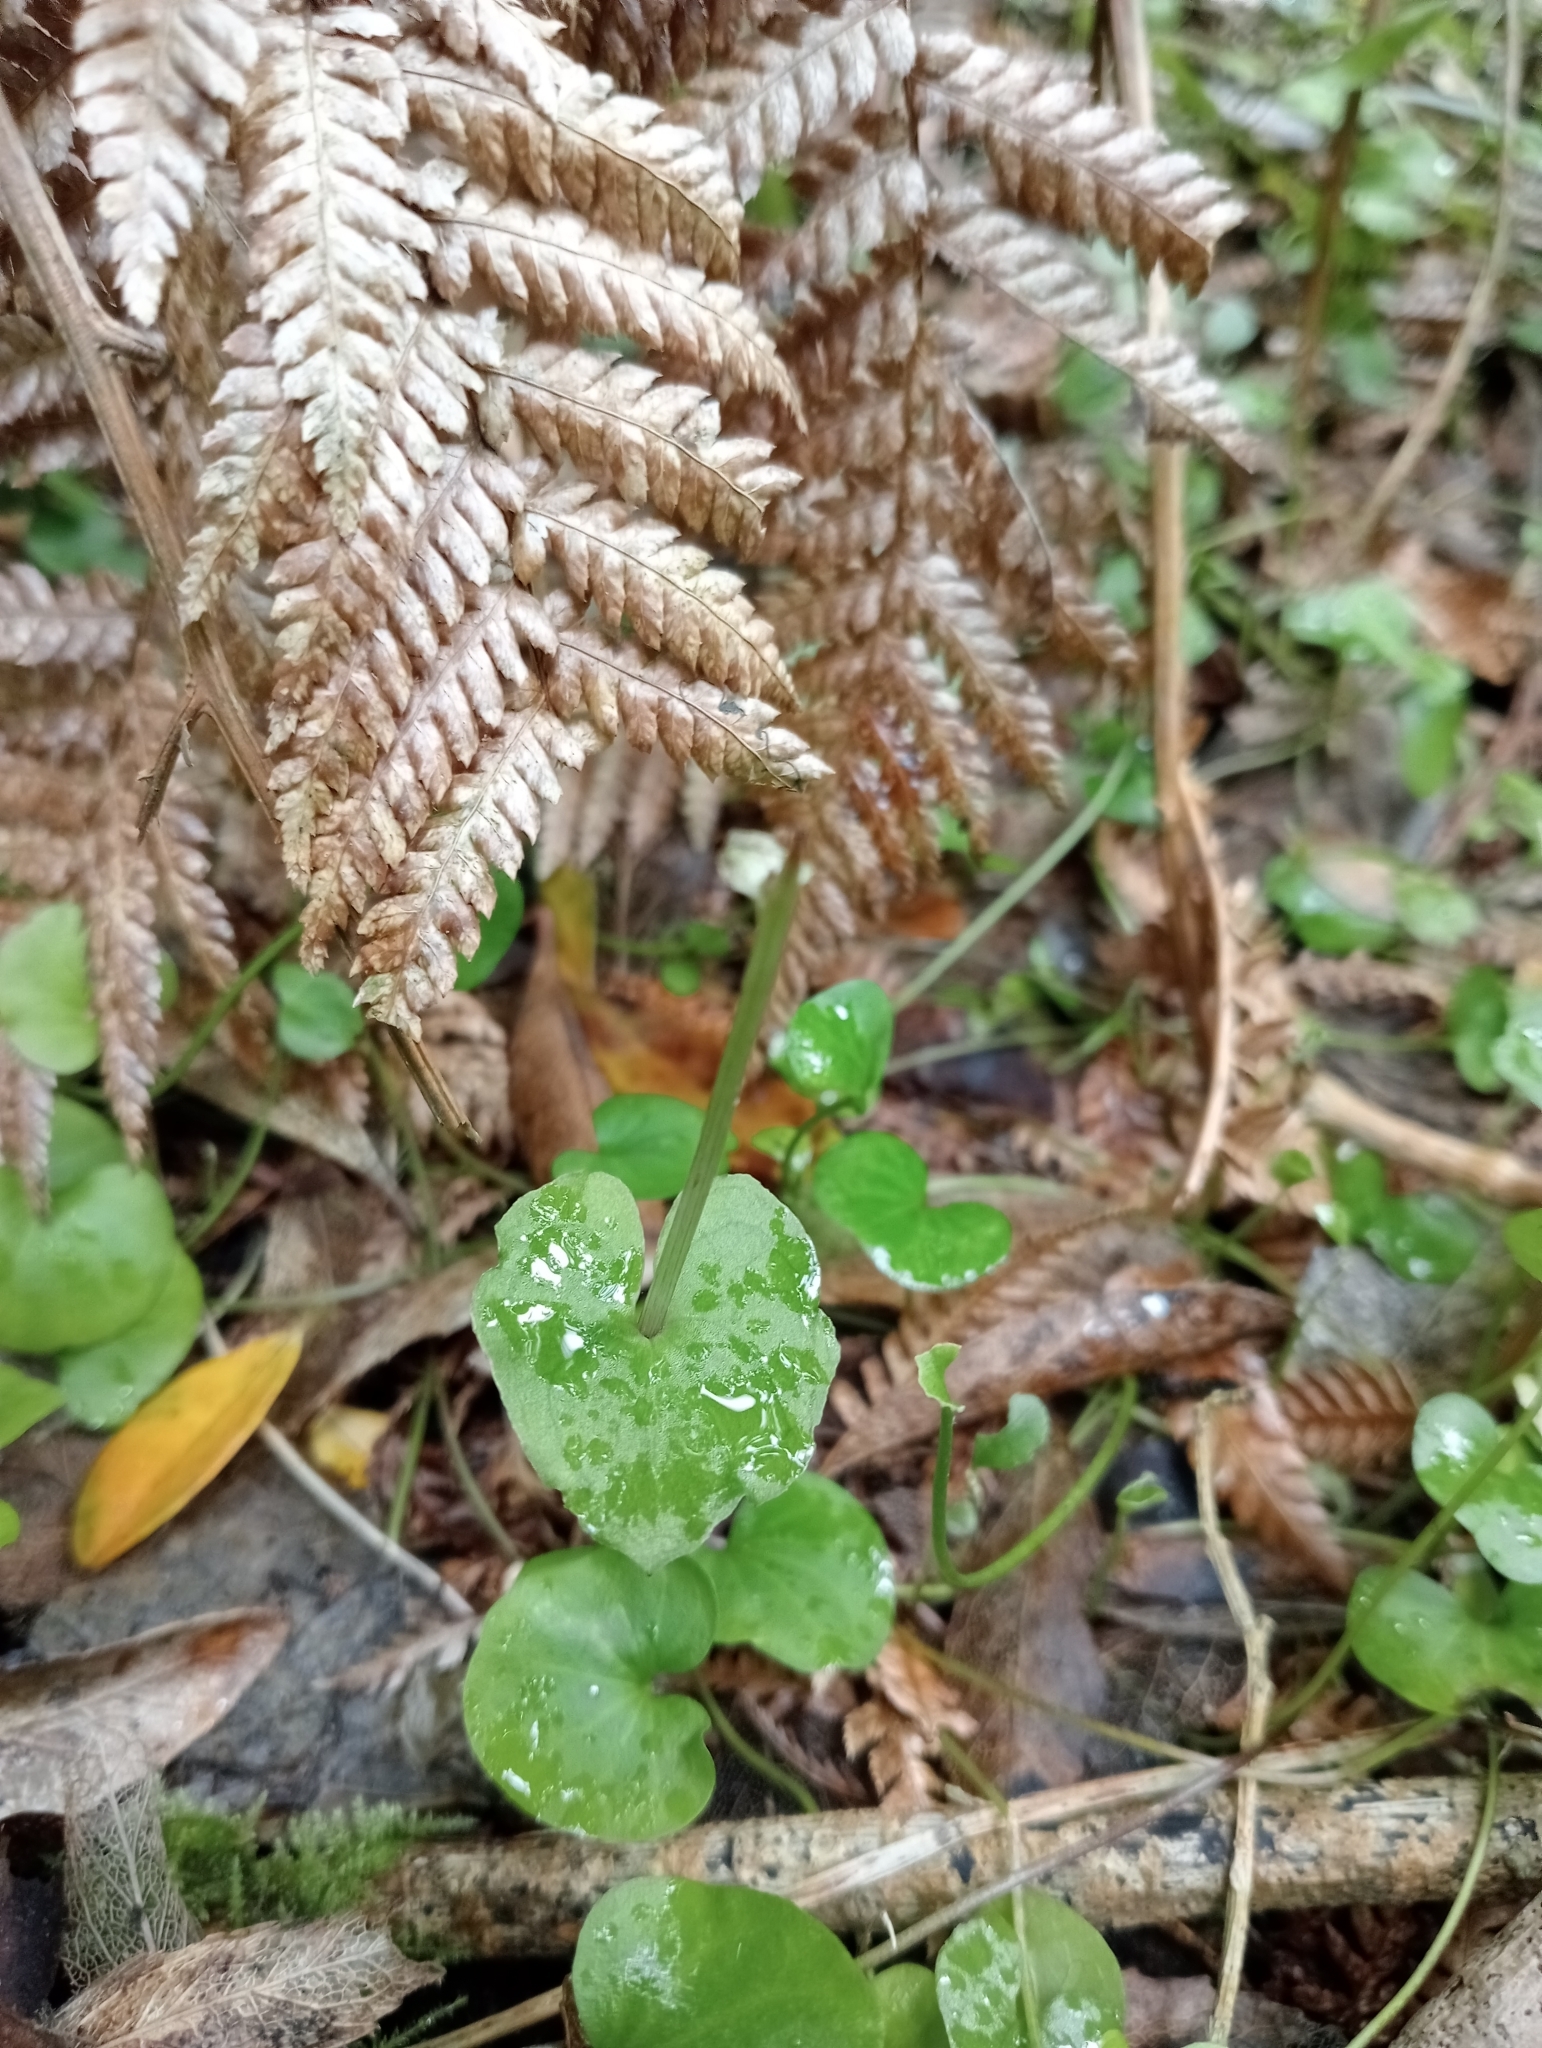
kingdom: Plantae
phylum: Tracheophyta
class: Liliopsida
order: Asparagales
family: Orchidaceae
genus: Acianthus
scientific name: Acianthus sinclairii
